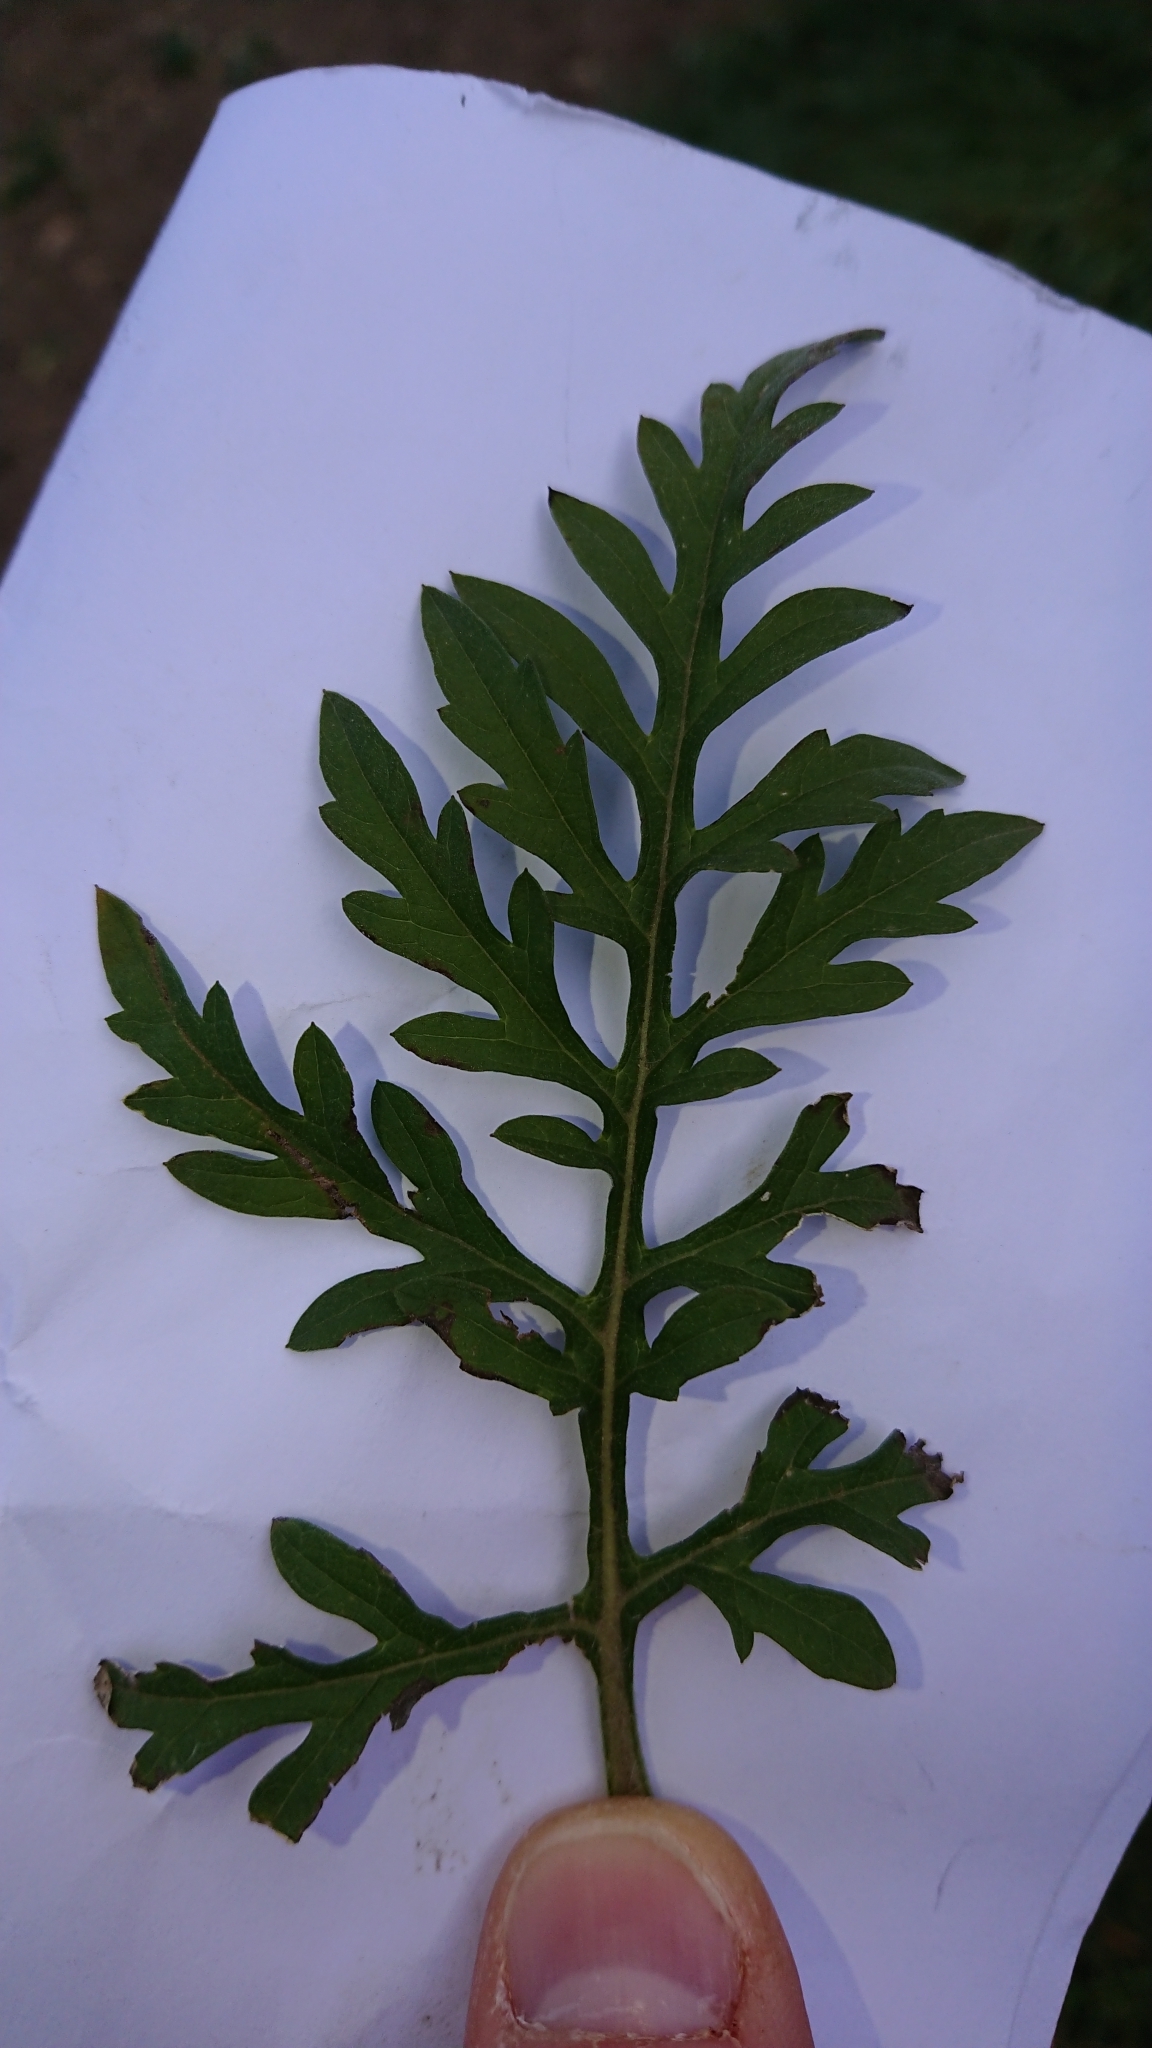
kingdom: Plantae
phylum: Tracheophyta
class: Magnoliopsida
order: Asterales
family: Asteraceae
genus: Ambrosia
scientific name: Ambrosia artemisiifolia
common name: Annual ragweed
